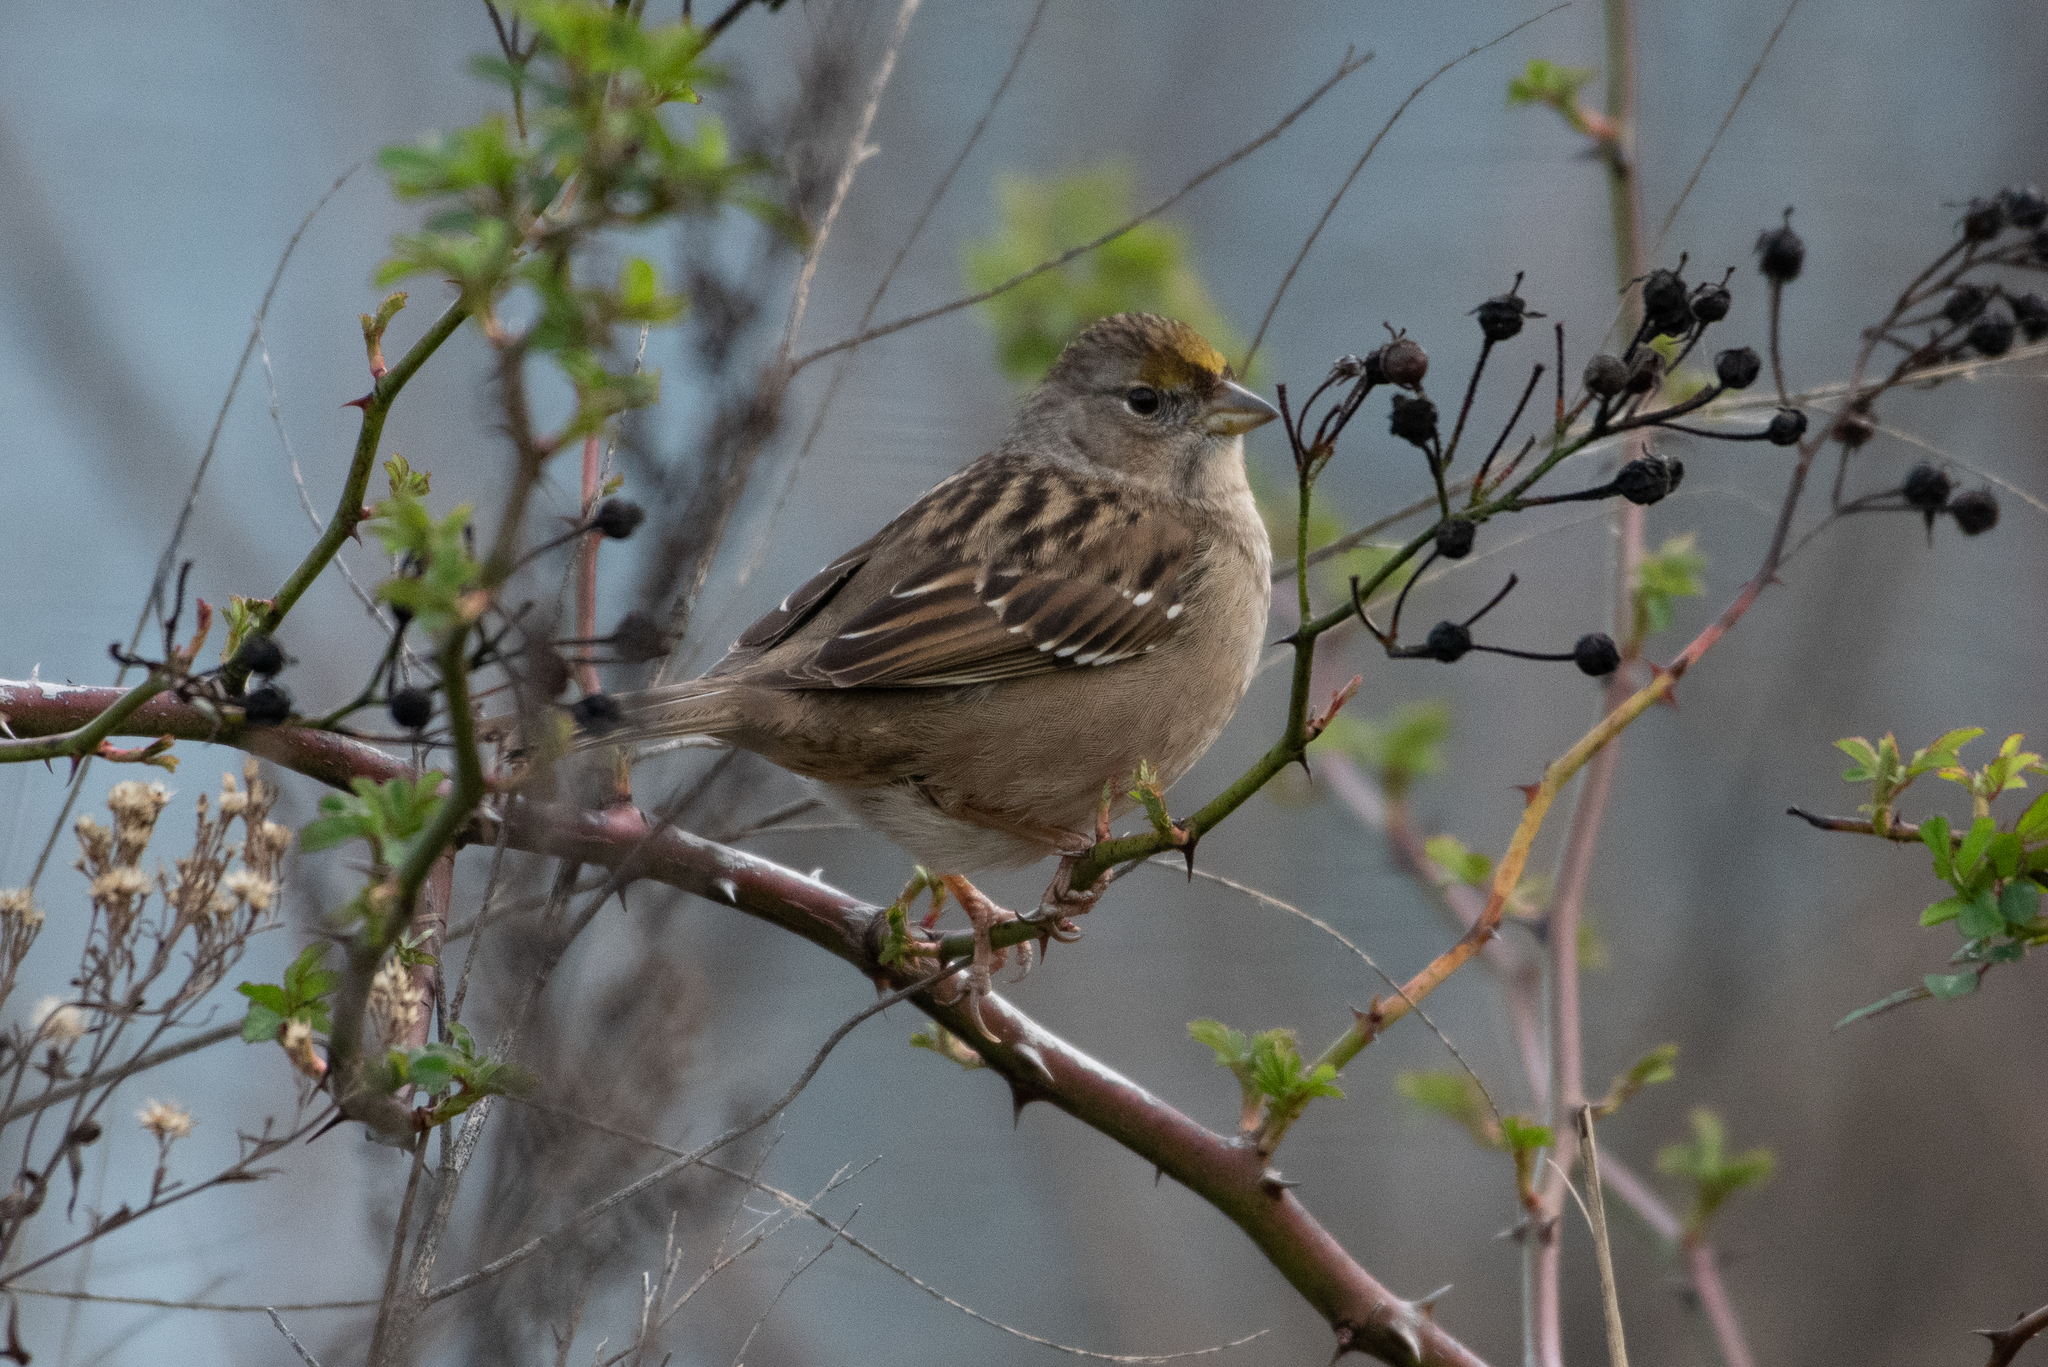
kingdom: Animalia
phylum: Chordata
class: Aves
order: Passeriformes
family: Passerellidae
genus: Zonotrichia
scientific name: Zonotrichia atricapilla
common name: Golden-crowned sparrow
